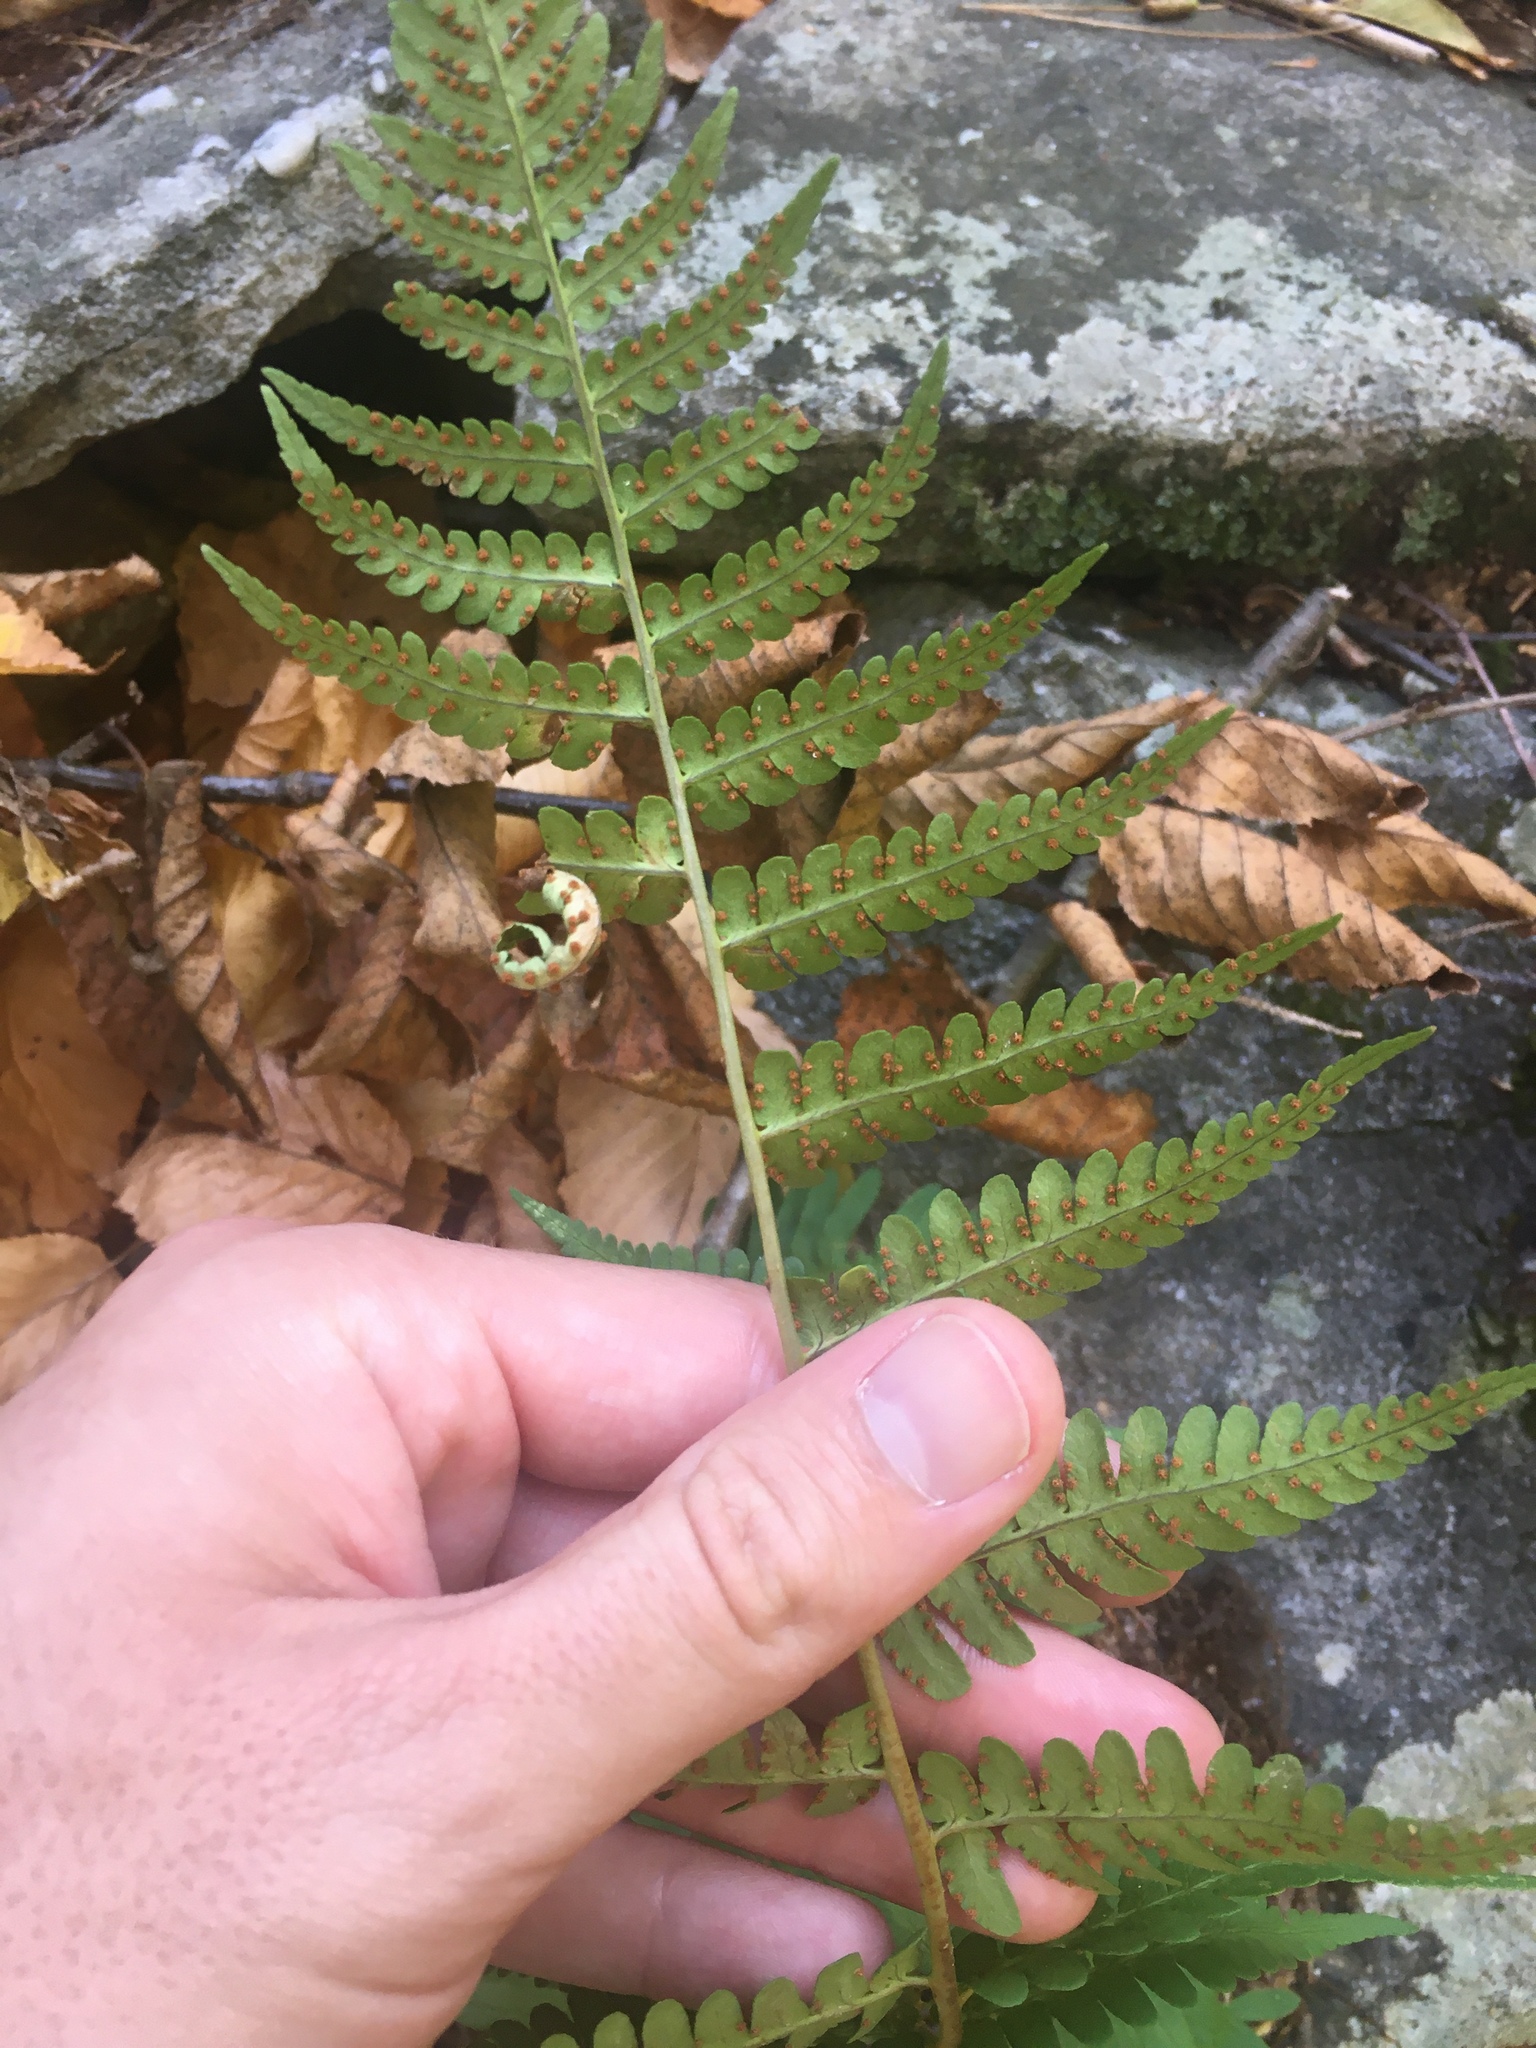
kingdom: Plantae
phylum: Tracheophyta
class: Polypodiopsida
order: Polypodiales
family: Dryopteridaceae
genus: Dryopteris
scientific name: Dryopteris marginalis
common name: Marginal wood fern
